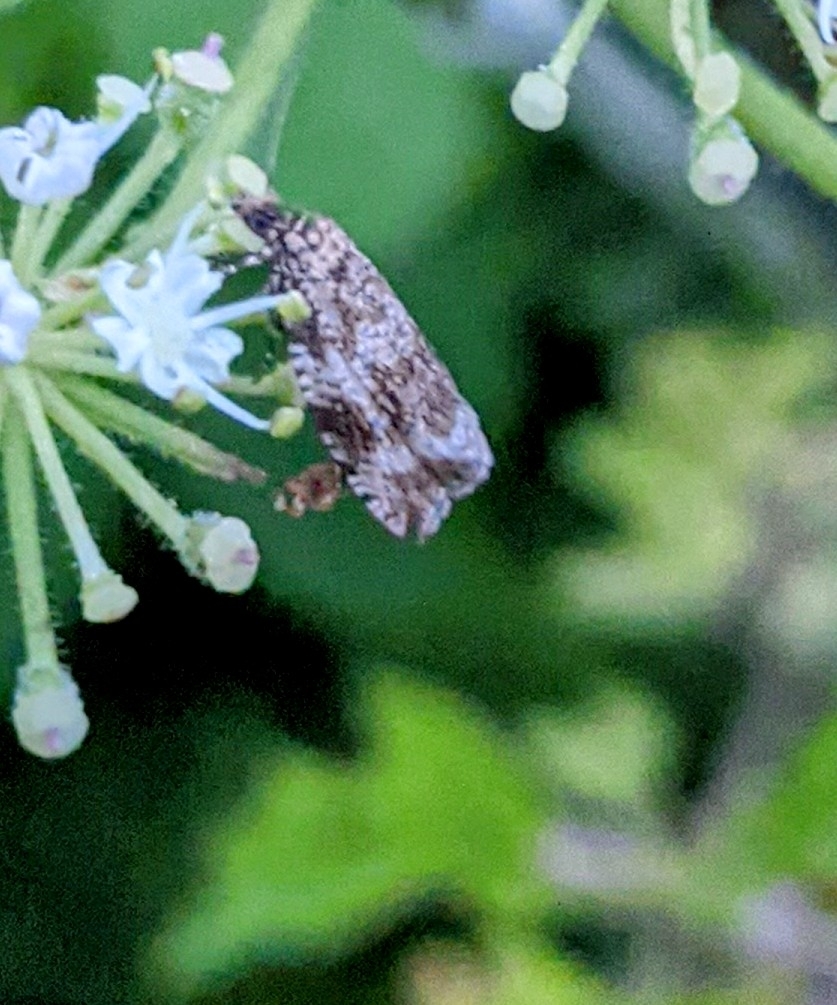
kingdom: Animalia
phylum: Arthropoda
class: Insecta
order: Lepidoptera
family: Tortricidae
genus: Syricoris
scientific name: Syricoris lacunana
